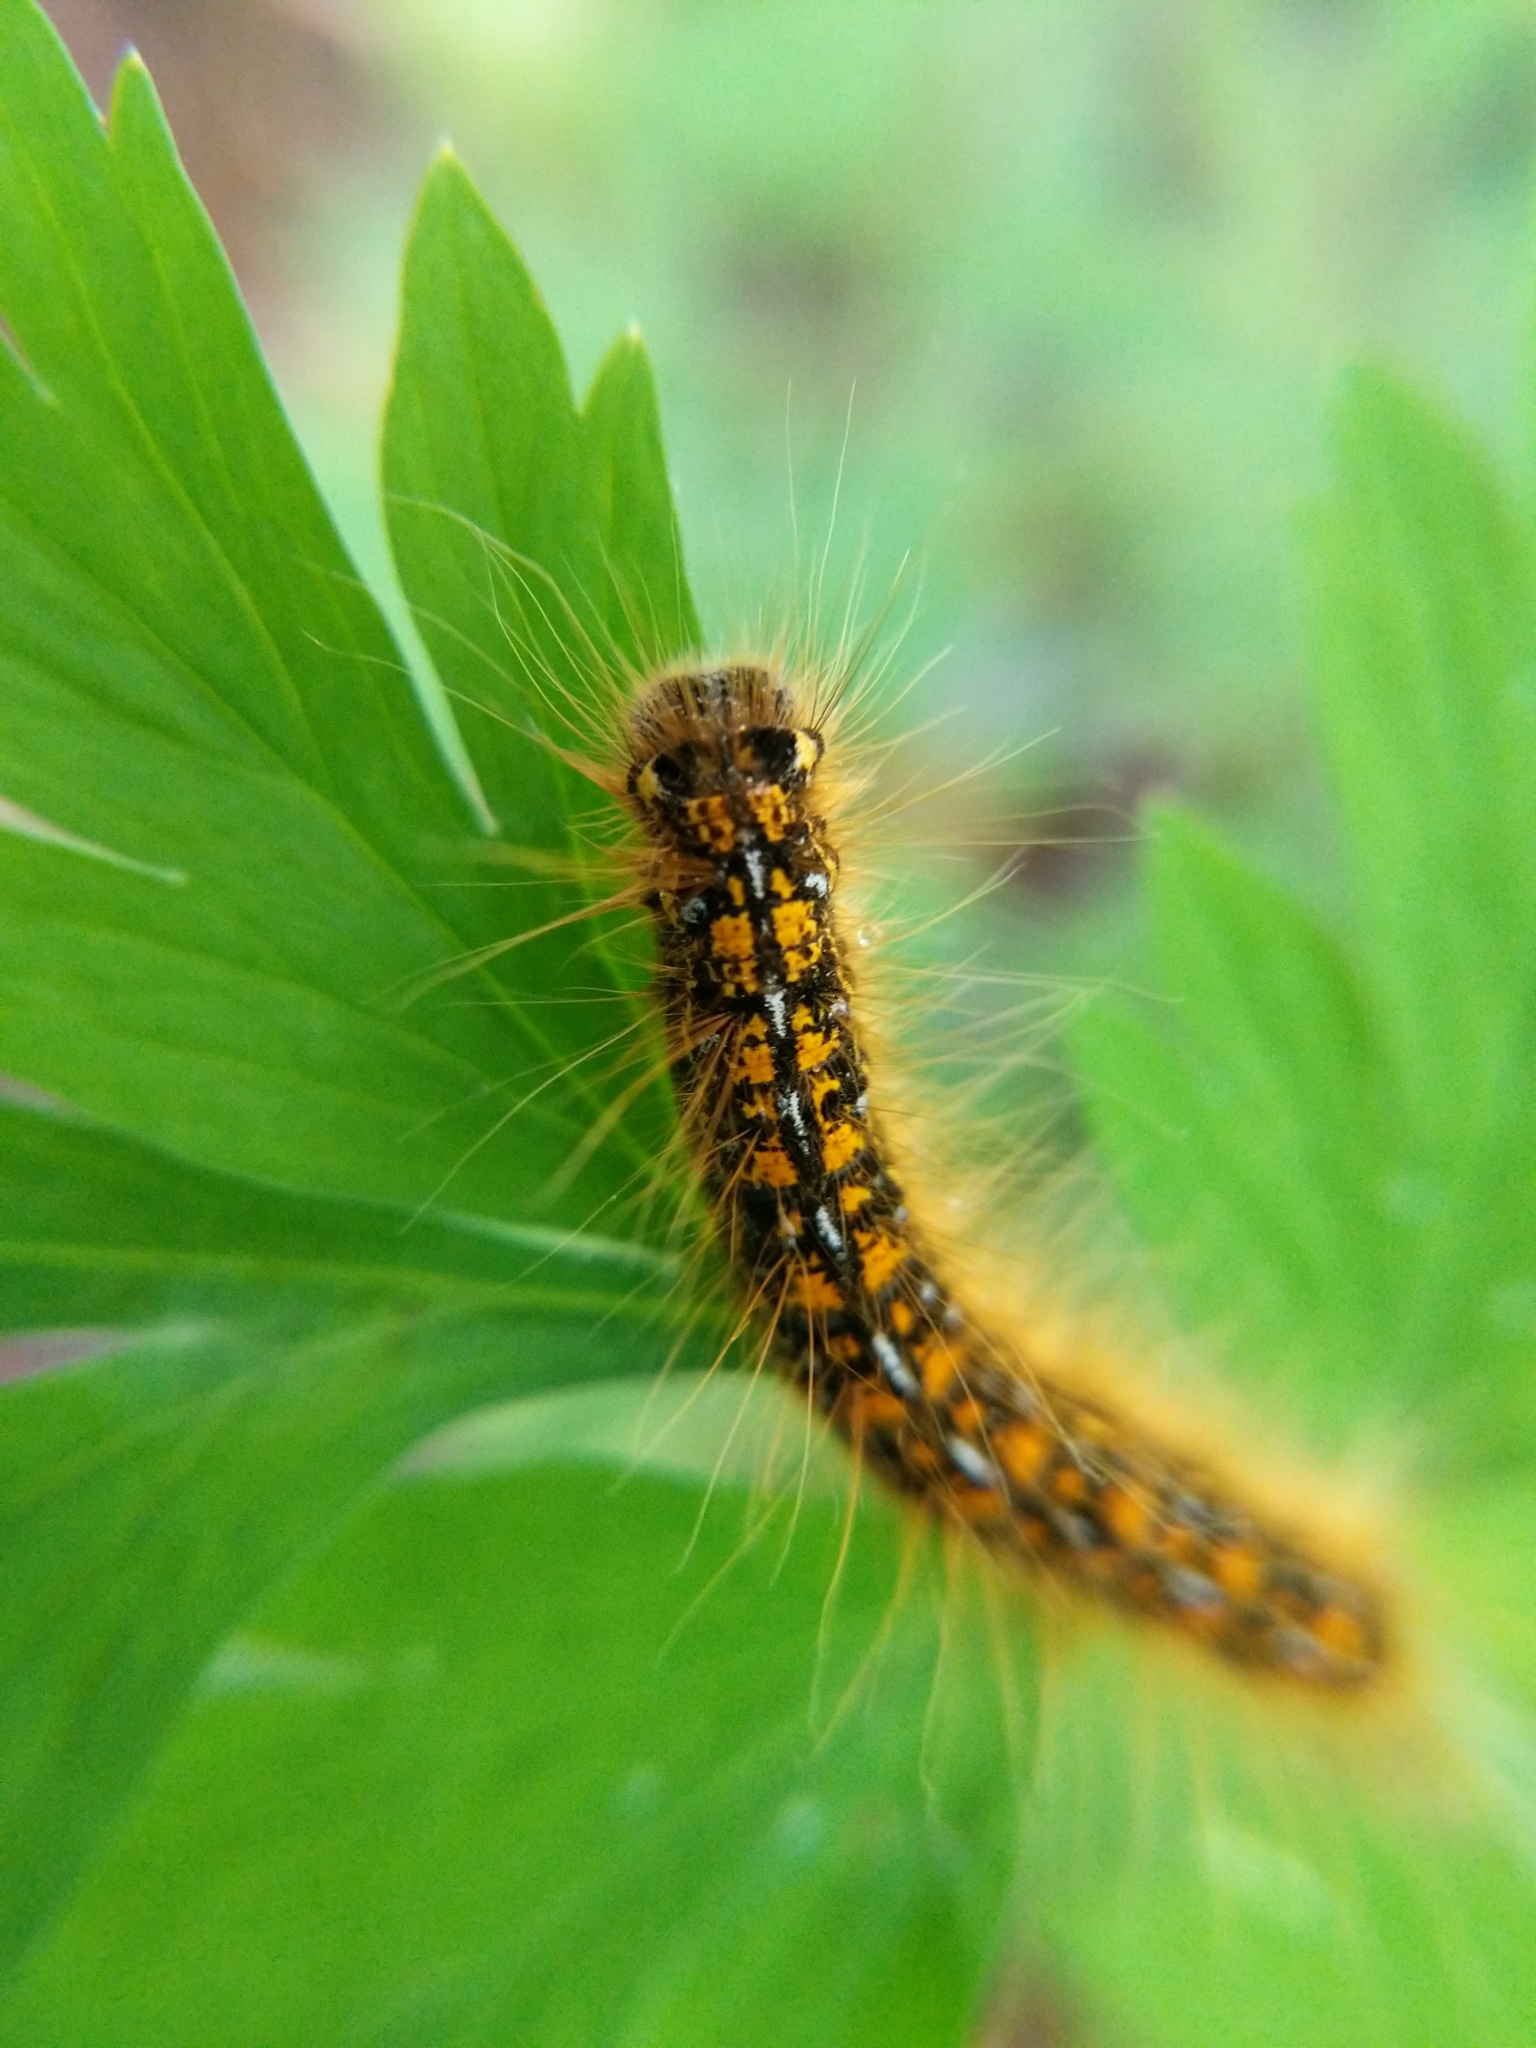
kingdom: Animalia
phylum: Arthropoda
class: Insecta
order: Lepidoptera
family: Lasiocampidae
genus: Malacosoma
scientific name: Malacosoma californica
